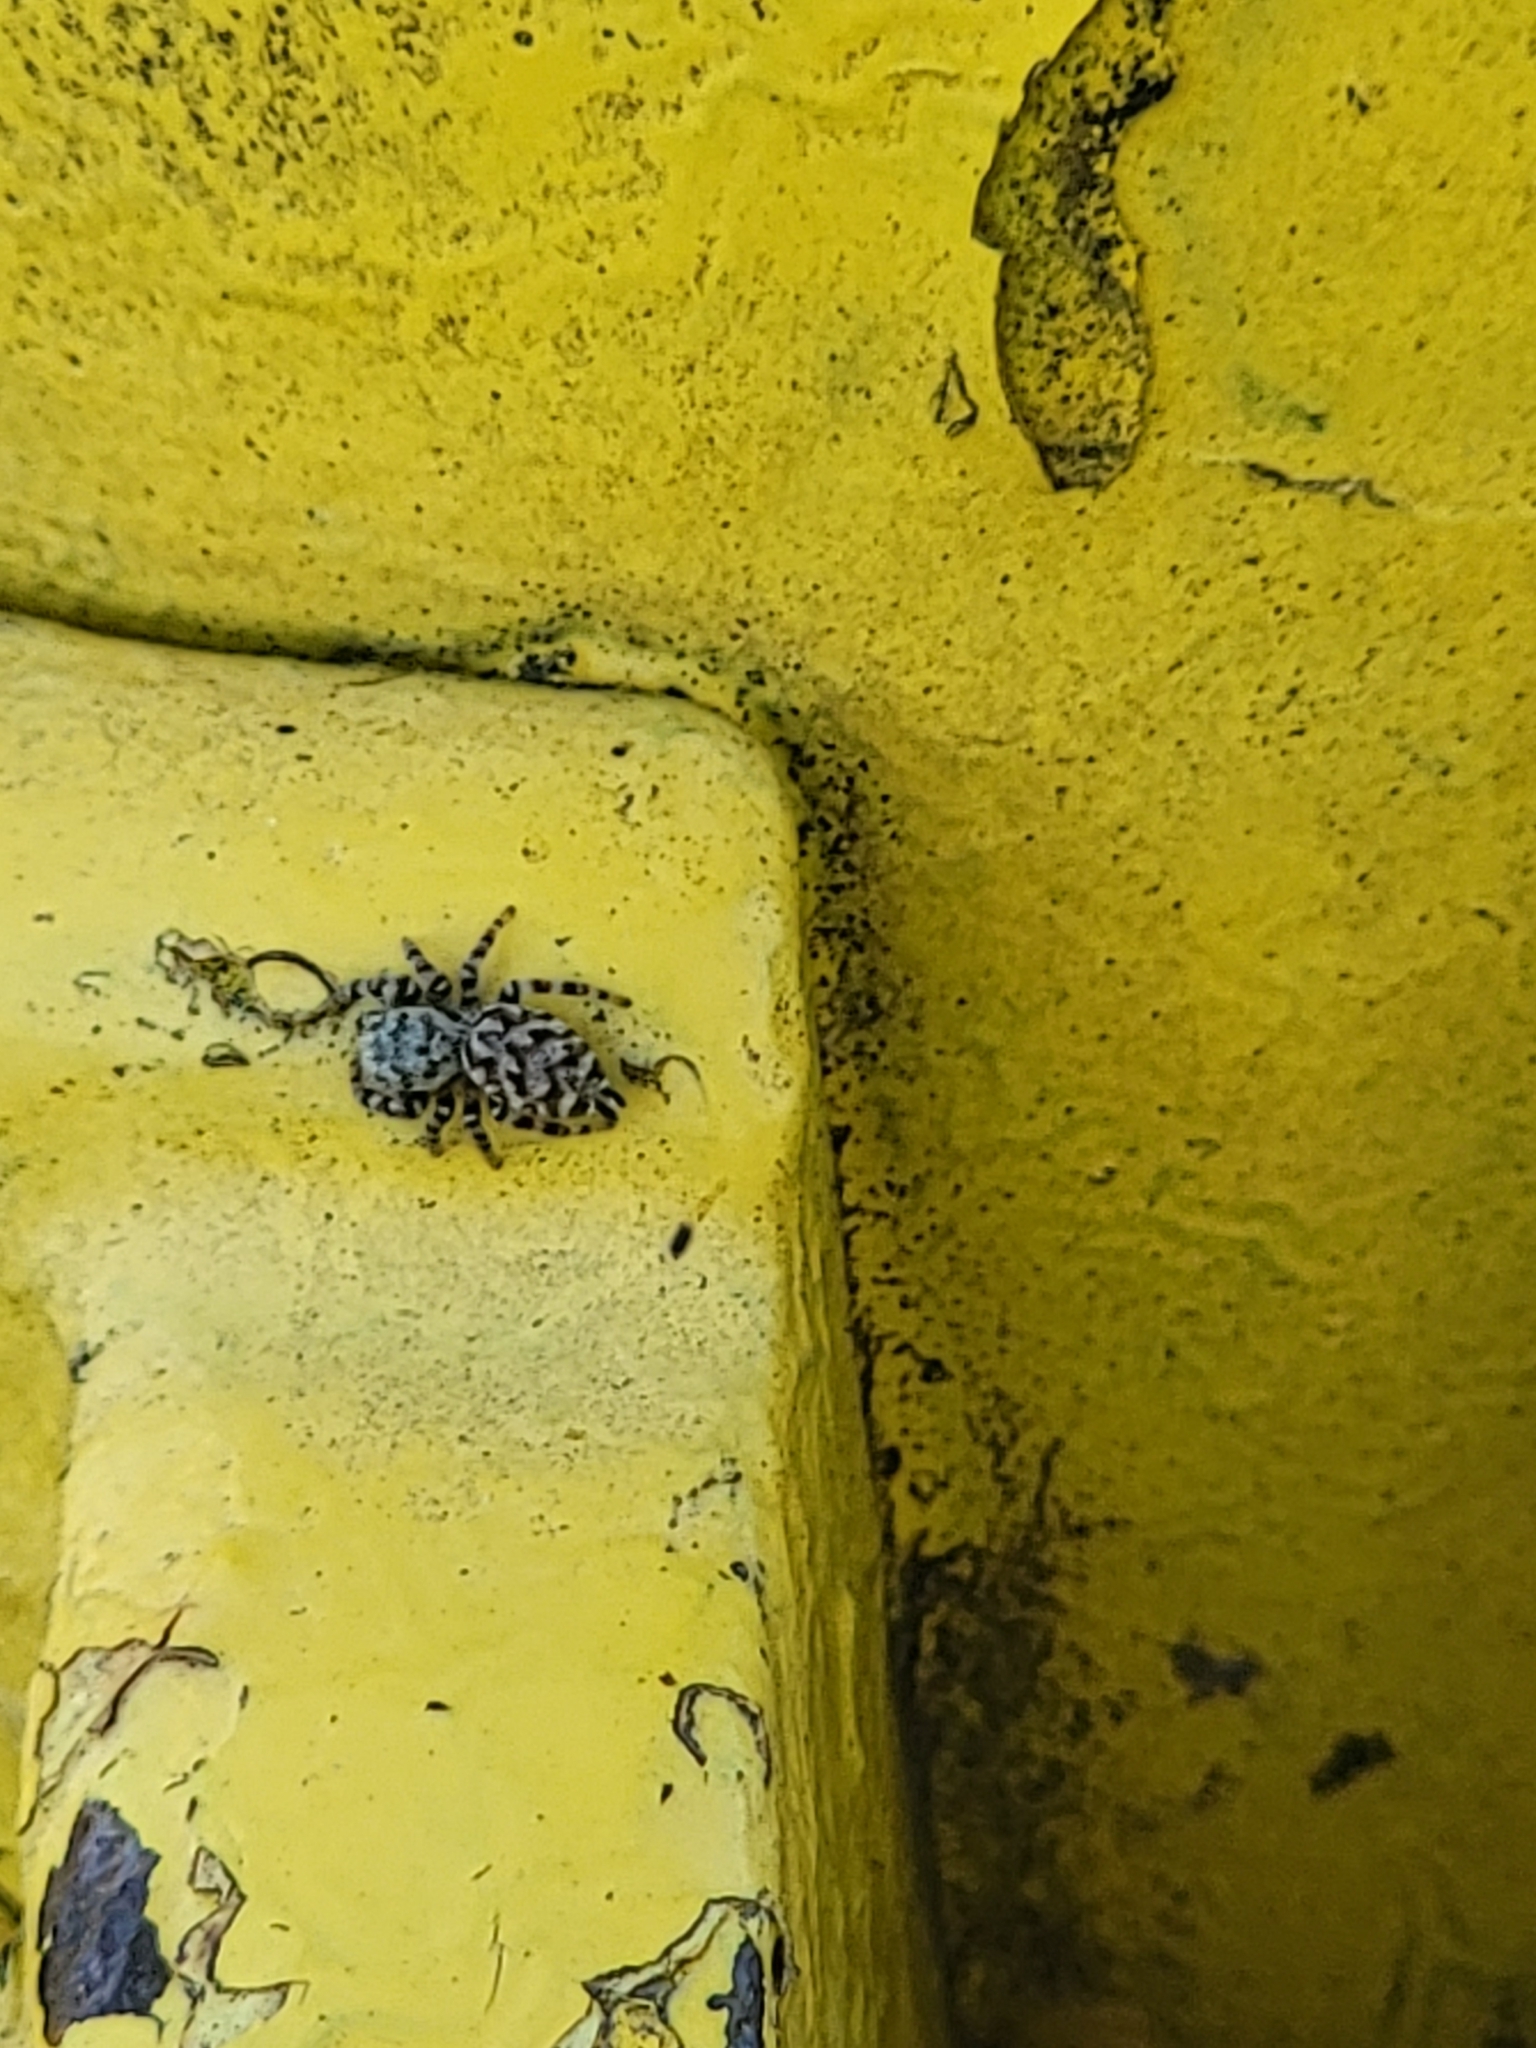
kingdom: Animalia
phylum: Arthropoda
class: Arachnida
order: Araneae
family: Salticidae
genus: Pelegrina
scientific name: Pelegrina galathea
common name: Jumping spiders
